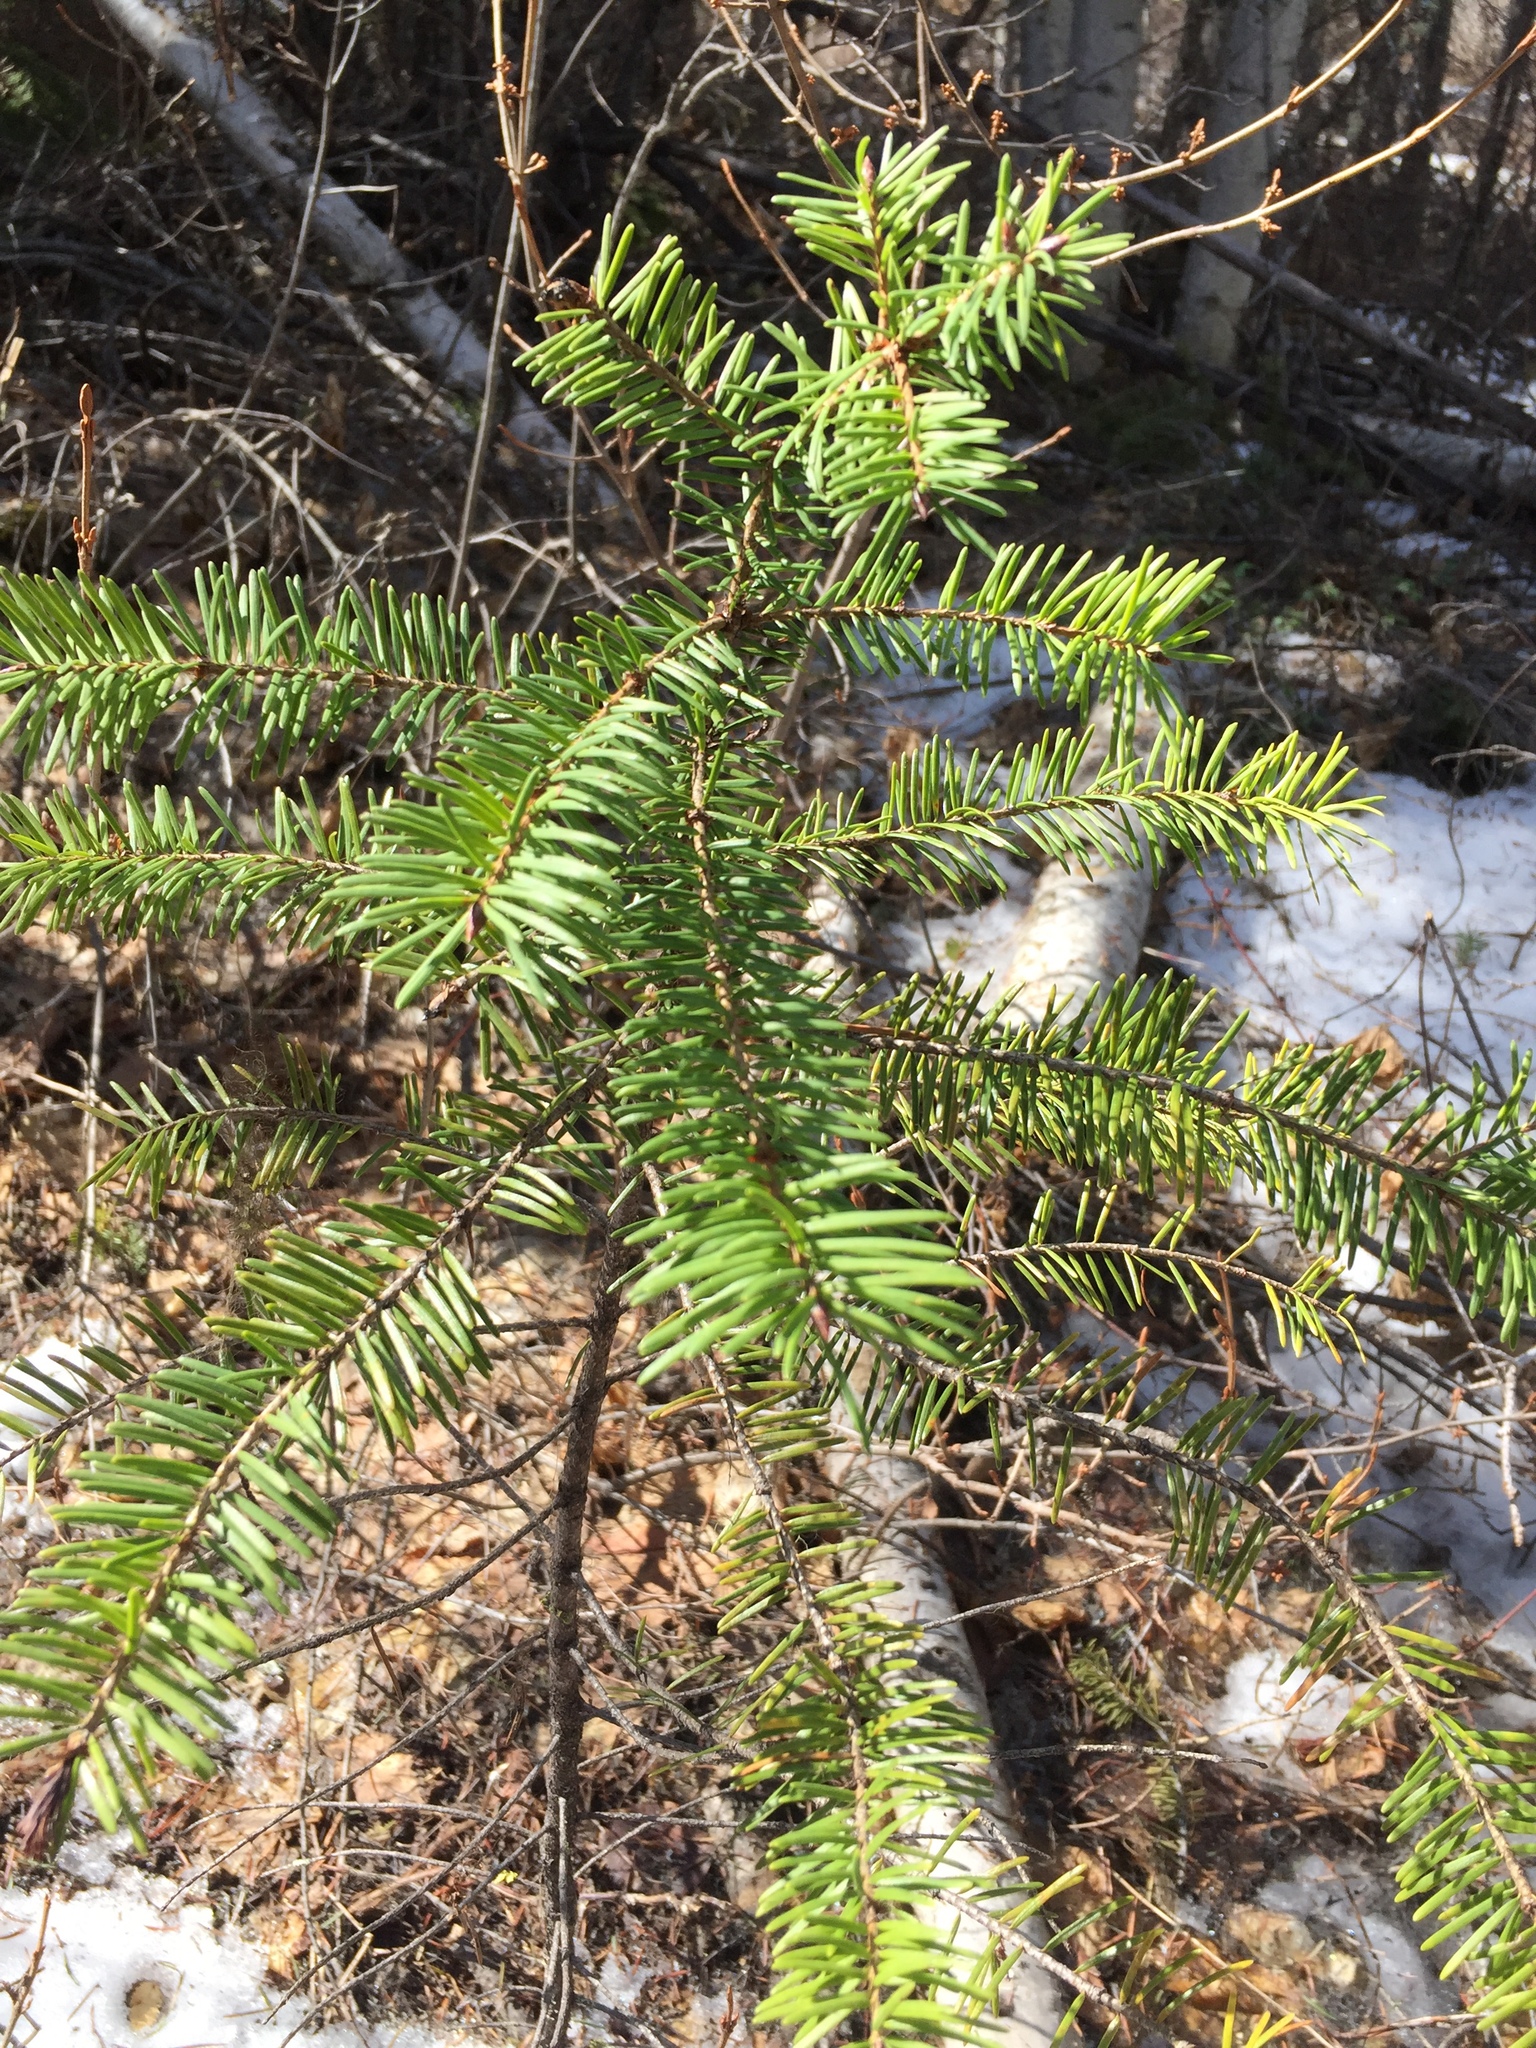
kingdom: Plantae
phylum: Tracheophyta
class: Pinopsida
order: Pinales
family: Pinaceae
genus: Pseudotsuga
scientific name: Pseudotsuga menziesii
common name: Douglas fir
